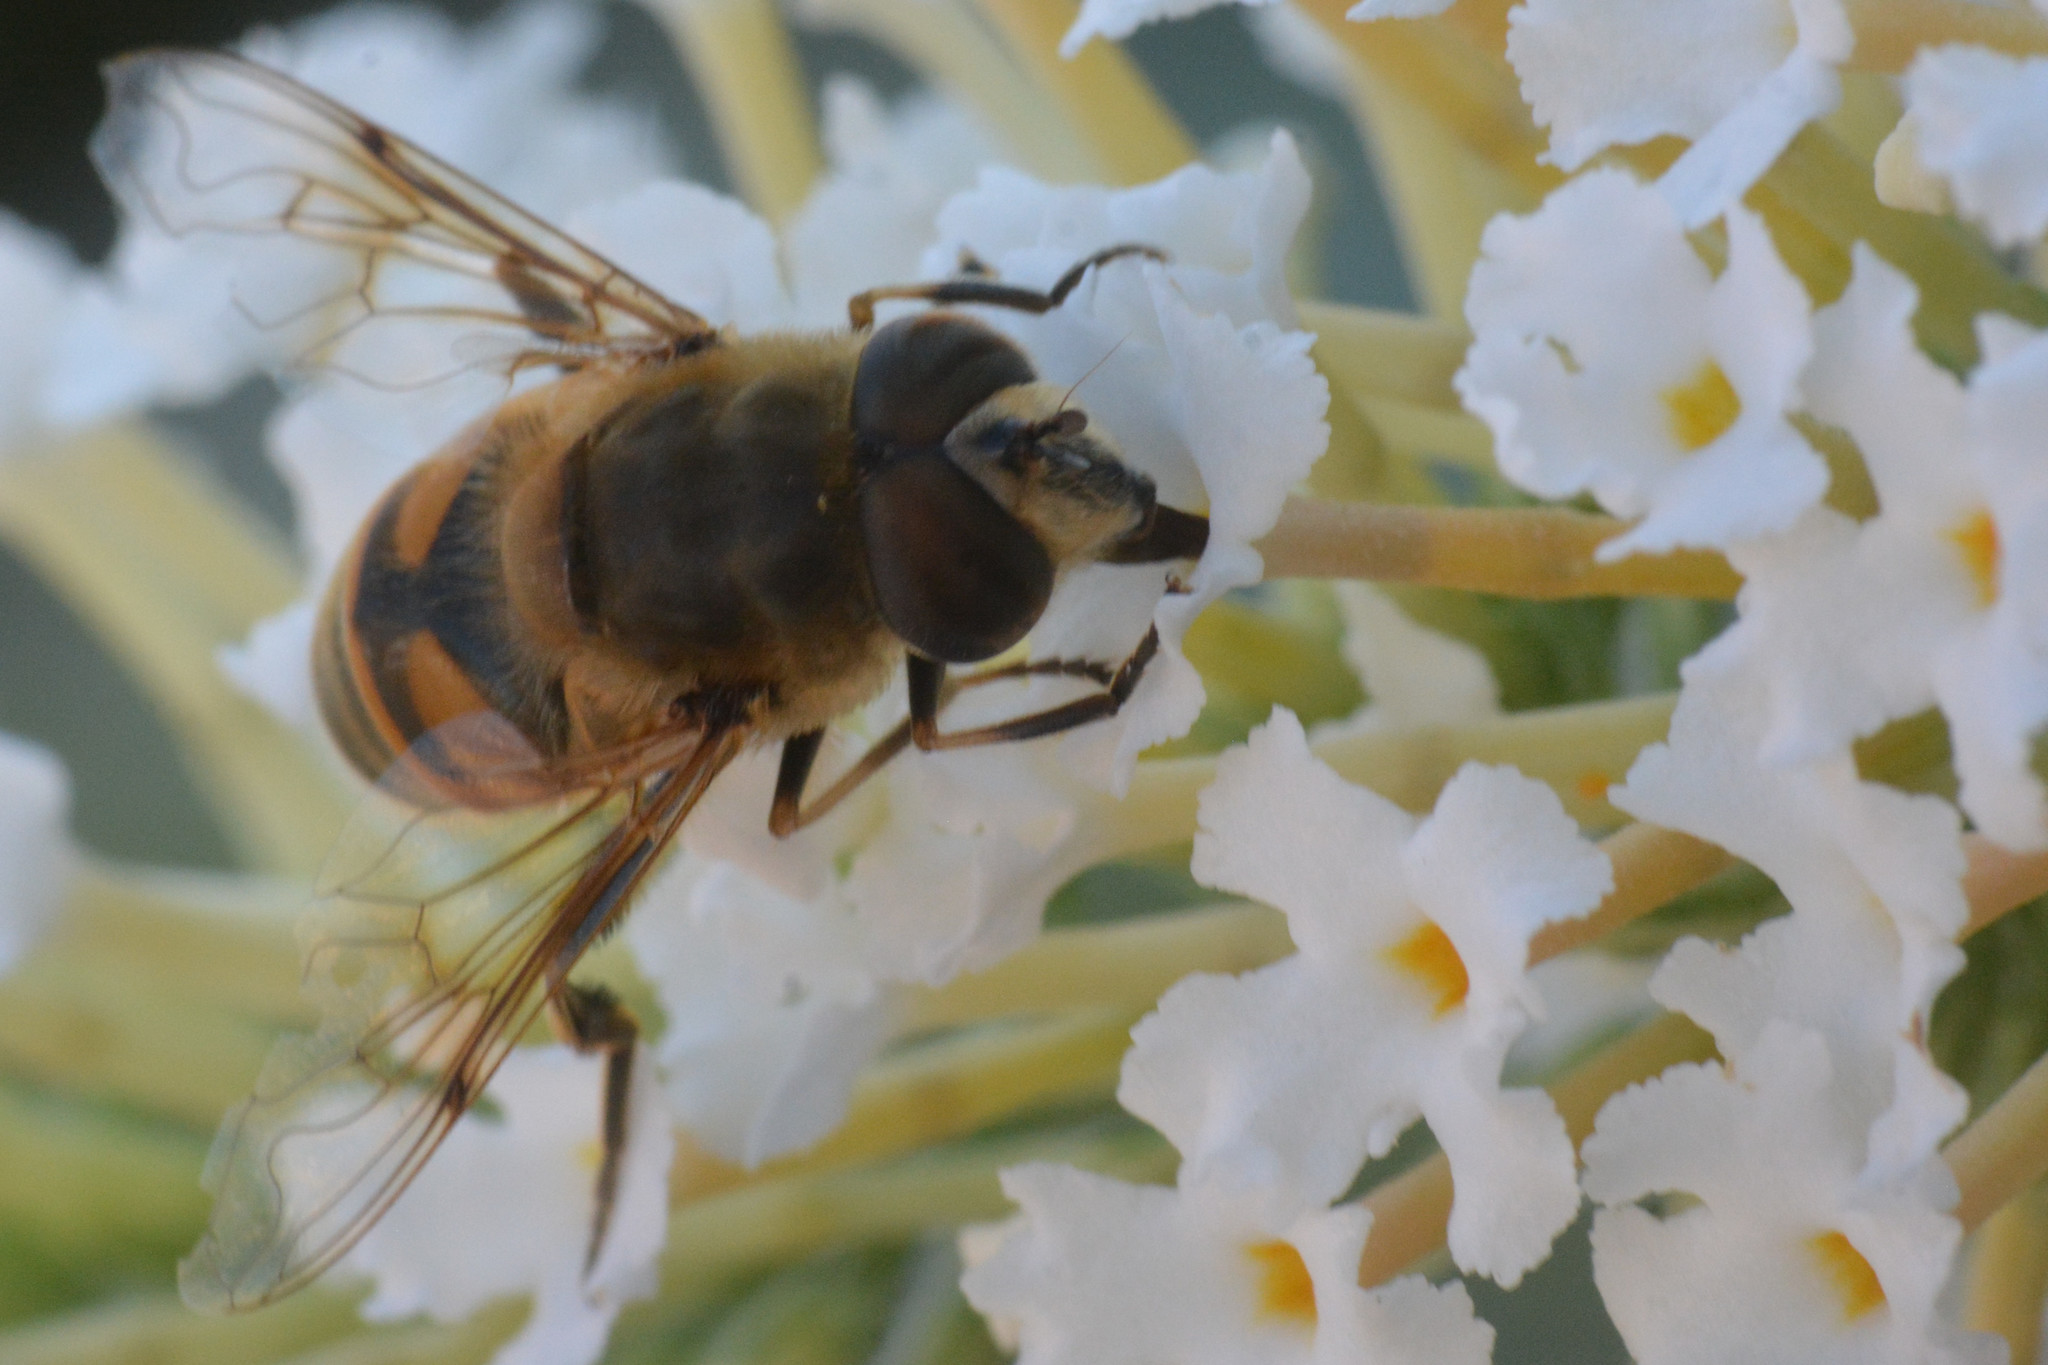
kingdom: Animalia
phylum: Arthropoda
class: Insecta
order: Diptera
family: Syrphidae
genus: Eristalis
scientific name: Eristalis tenax
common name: Drone fly
